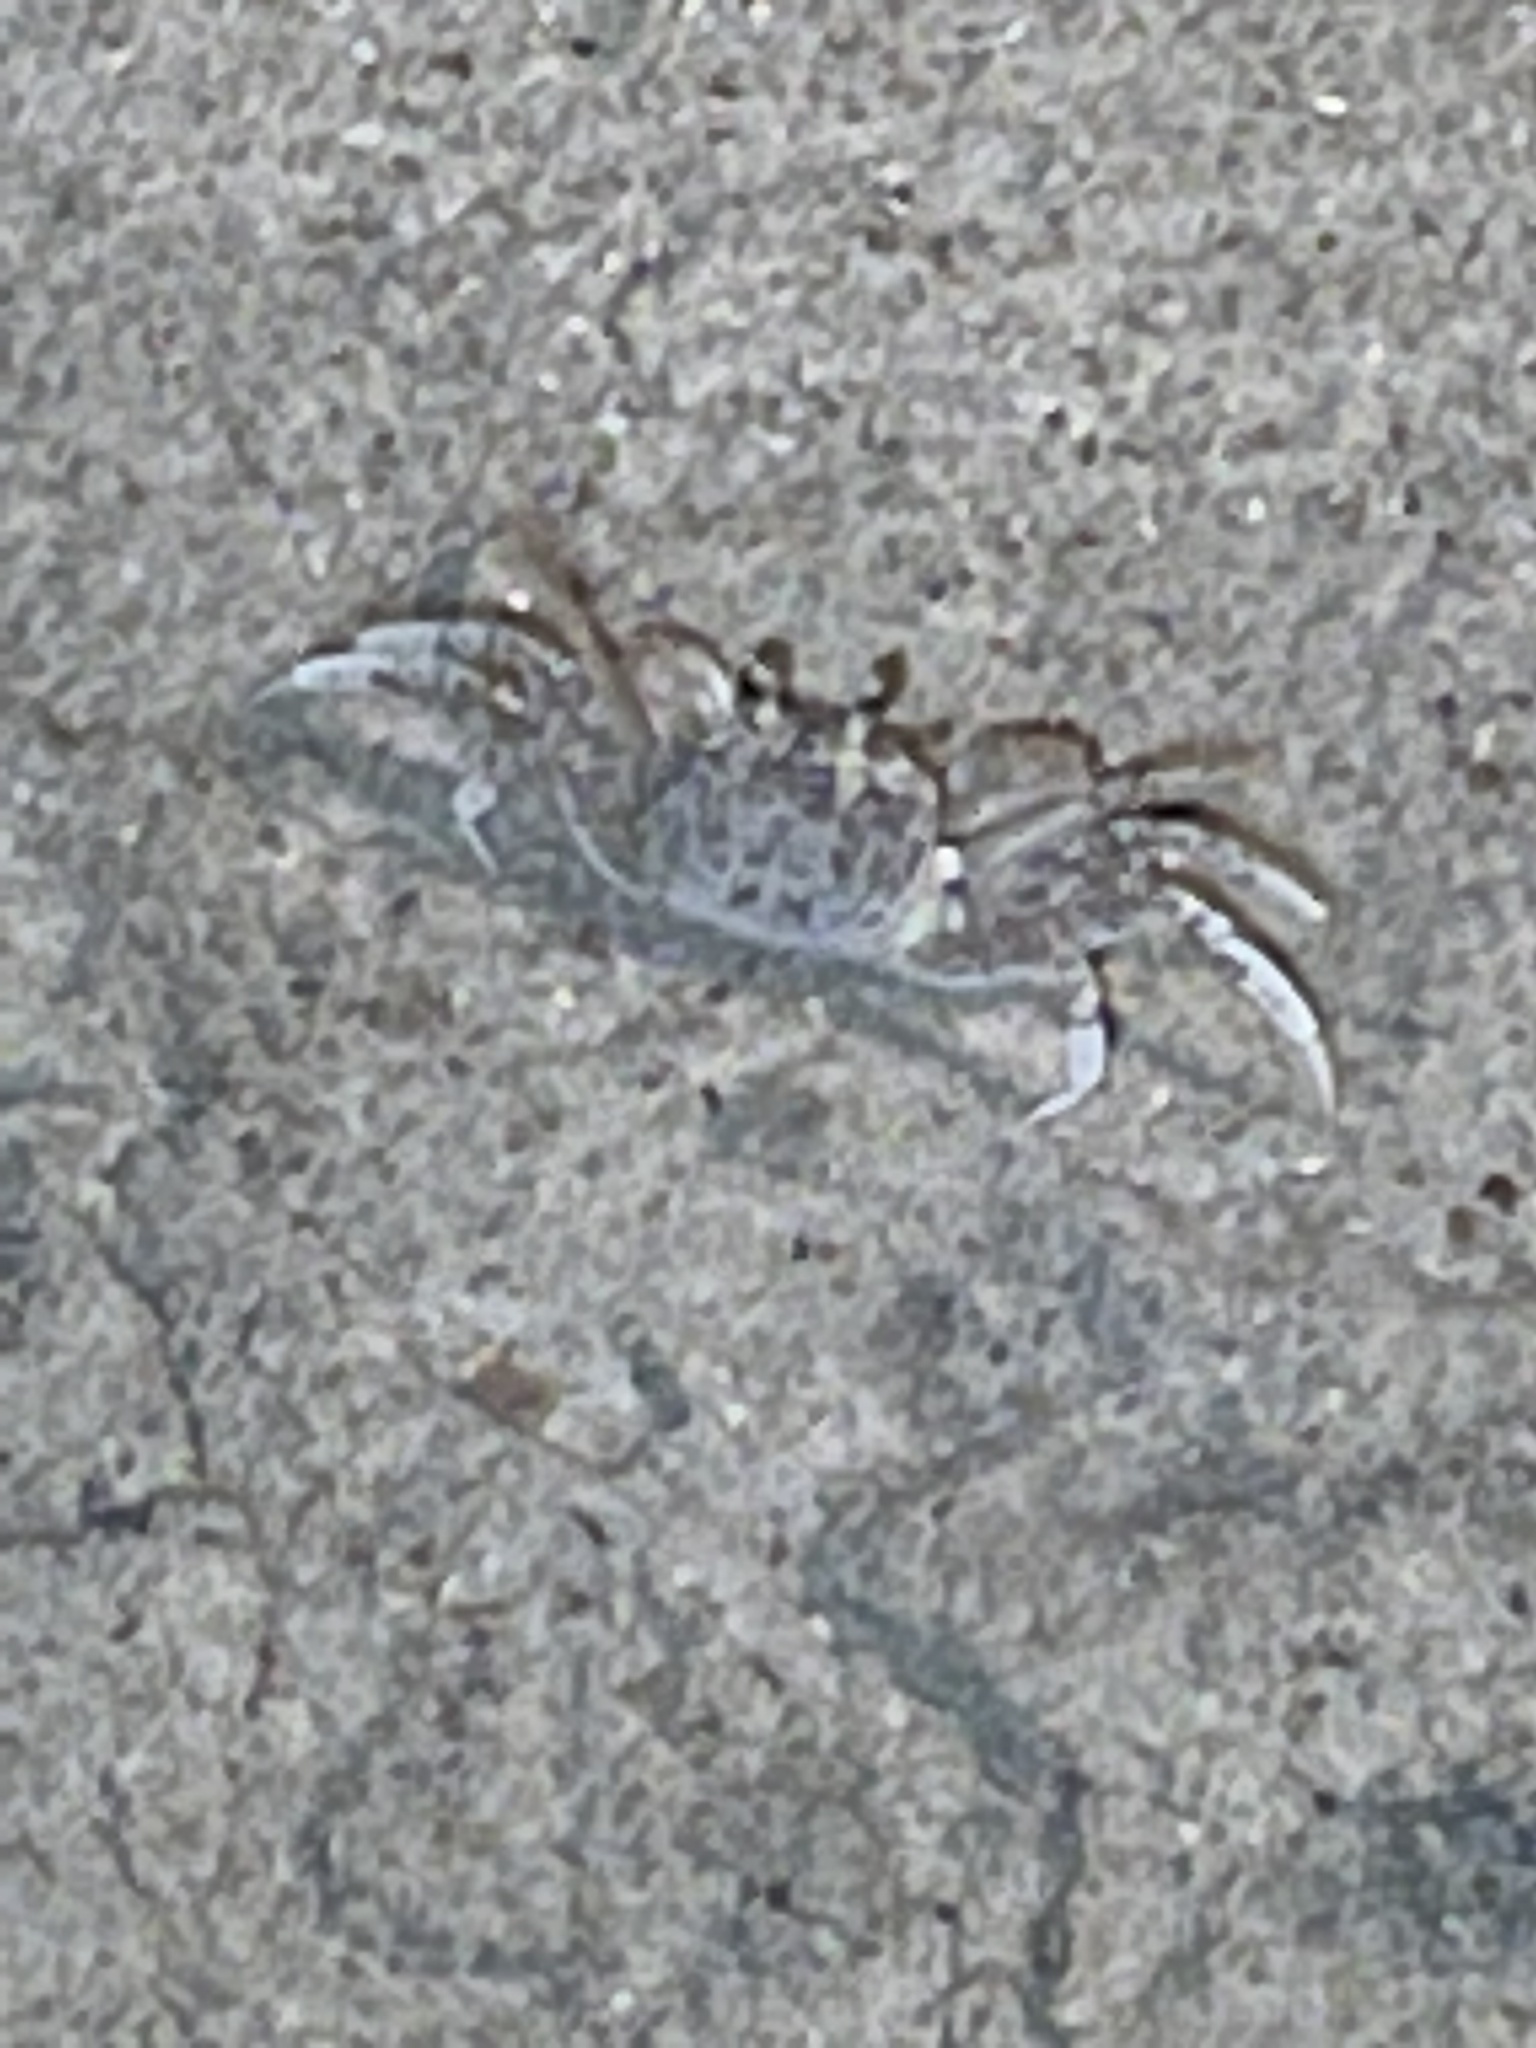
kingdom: Animalia
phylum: Arthropoda
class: Malacostraca
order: Decapoda
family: Ocypodidae
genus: Ocypode
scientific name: Ocypode quadrata
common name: Ghost crab
